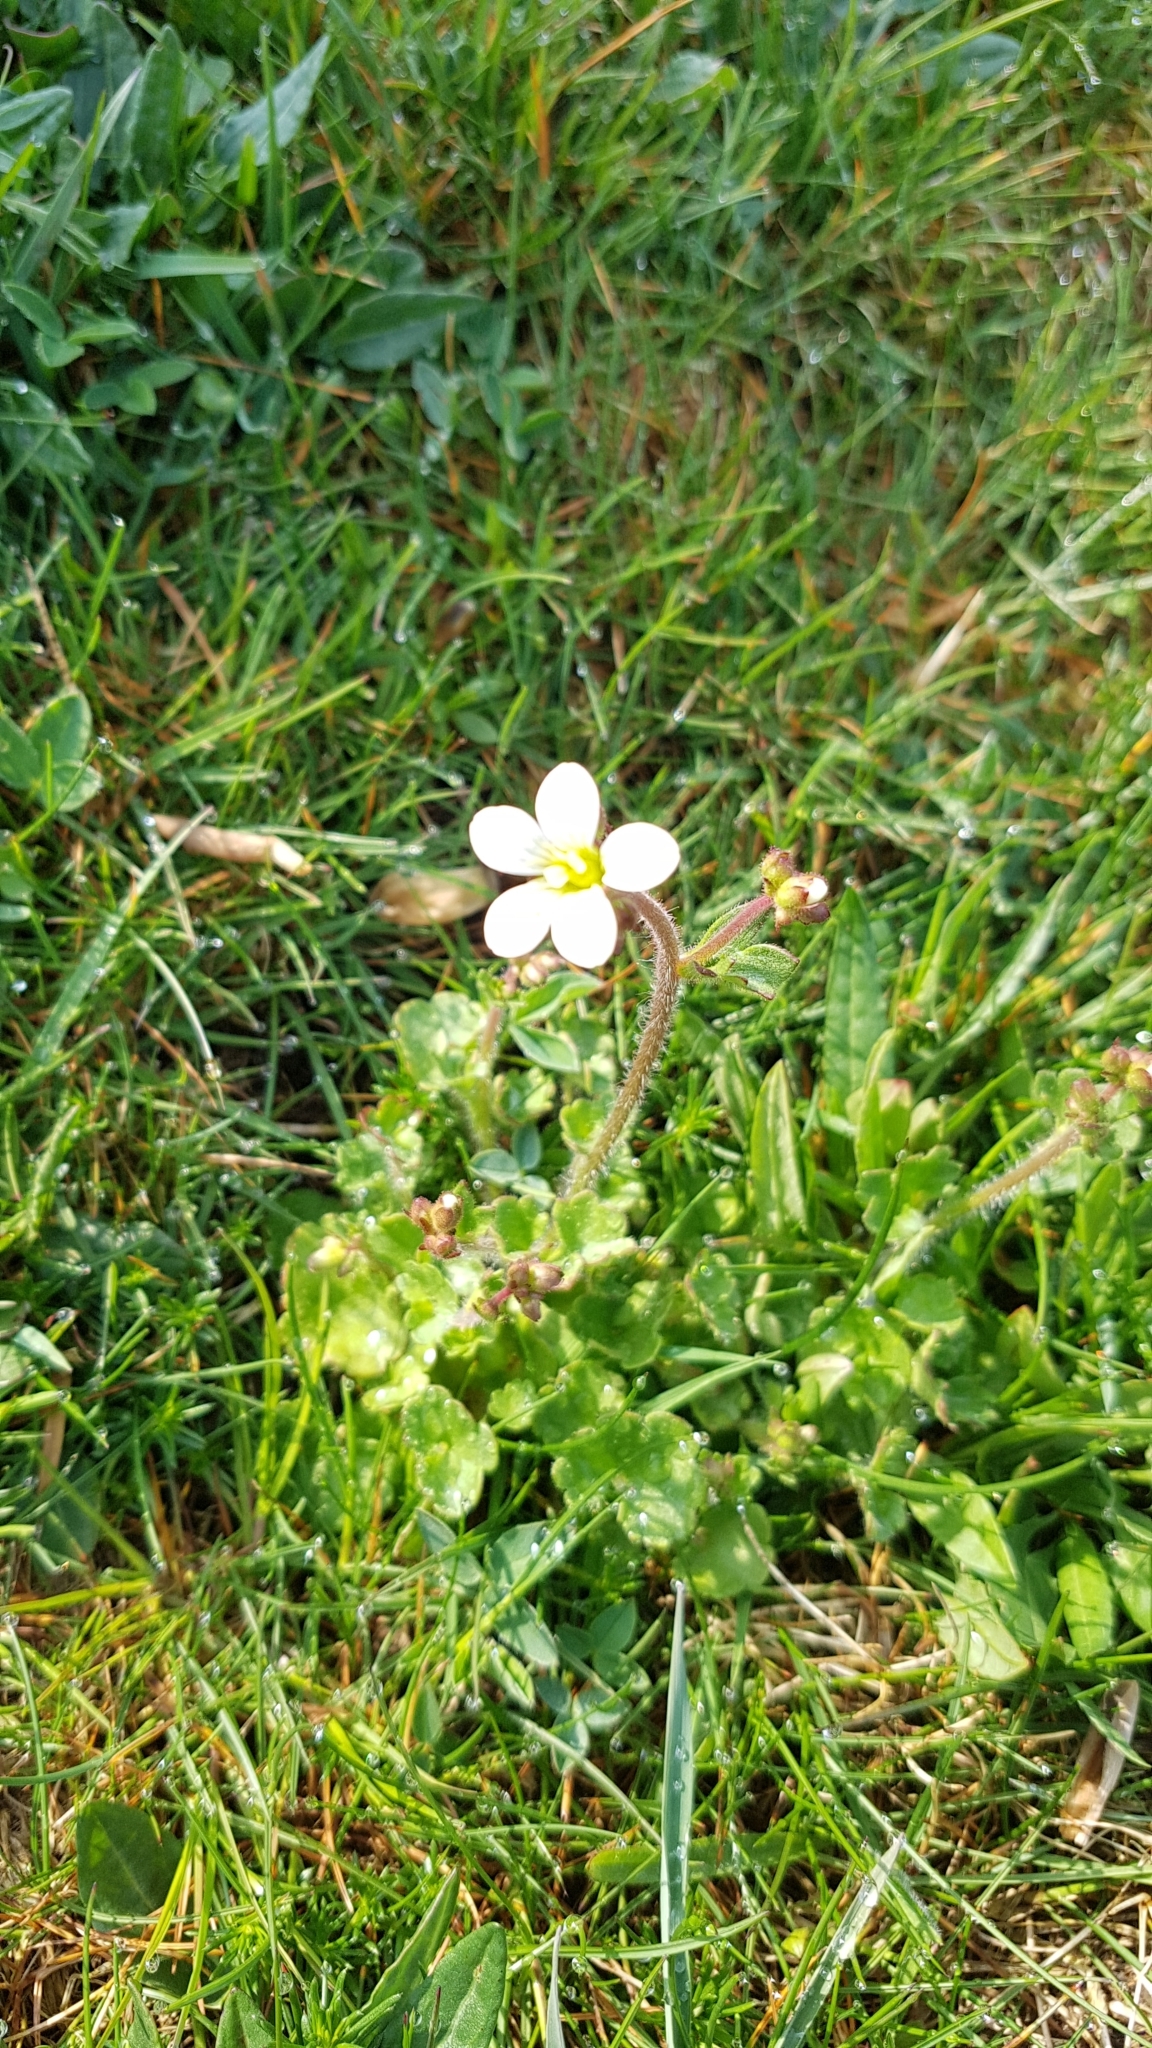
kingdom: Plantae
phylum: Tracheophyta
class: Magnoliopsida
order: Saxifragales
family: Saxifragaceae
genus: Saxifraga
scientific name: Saxifraga granulata
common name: Meadow saxifrage
